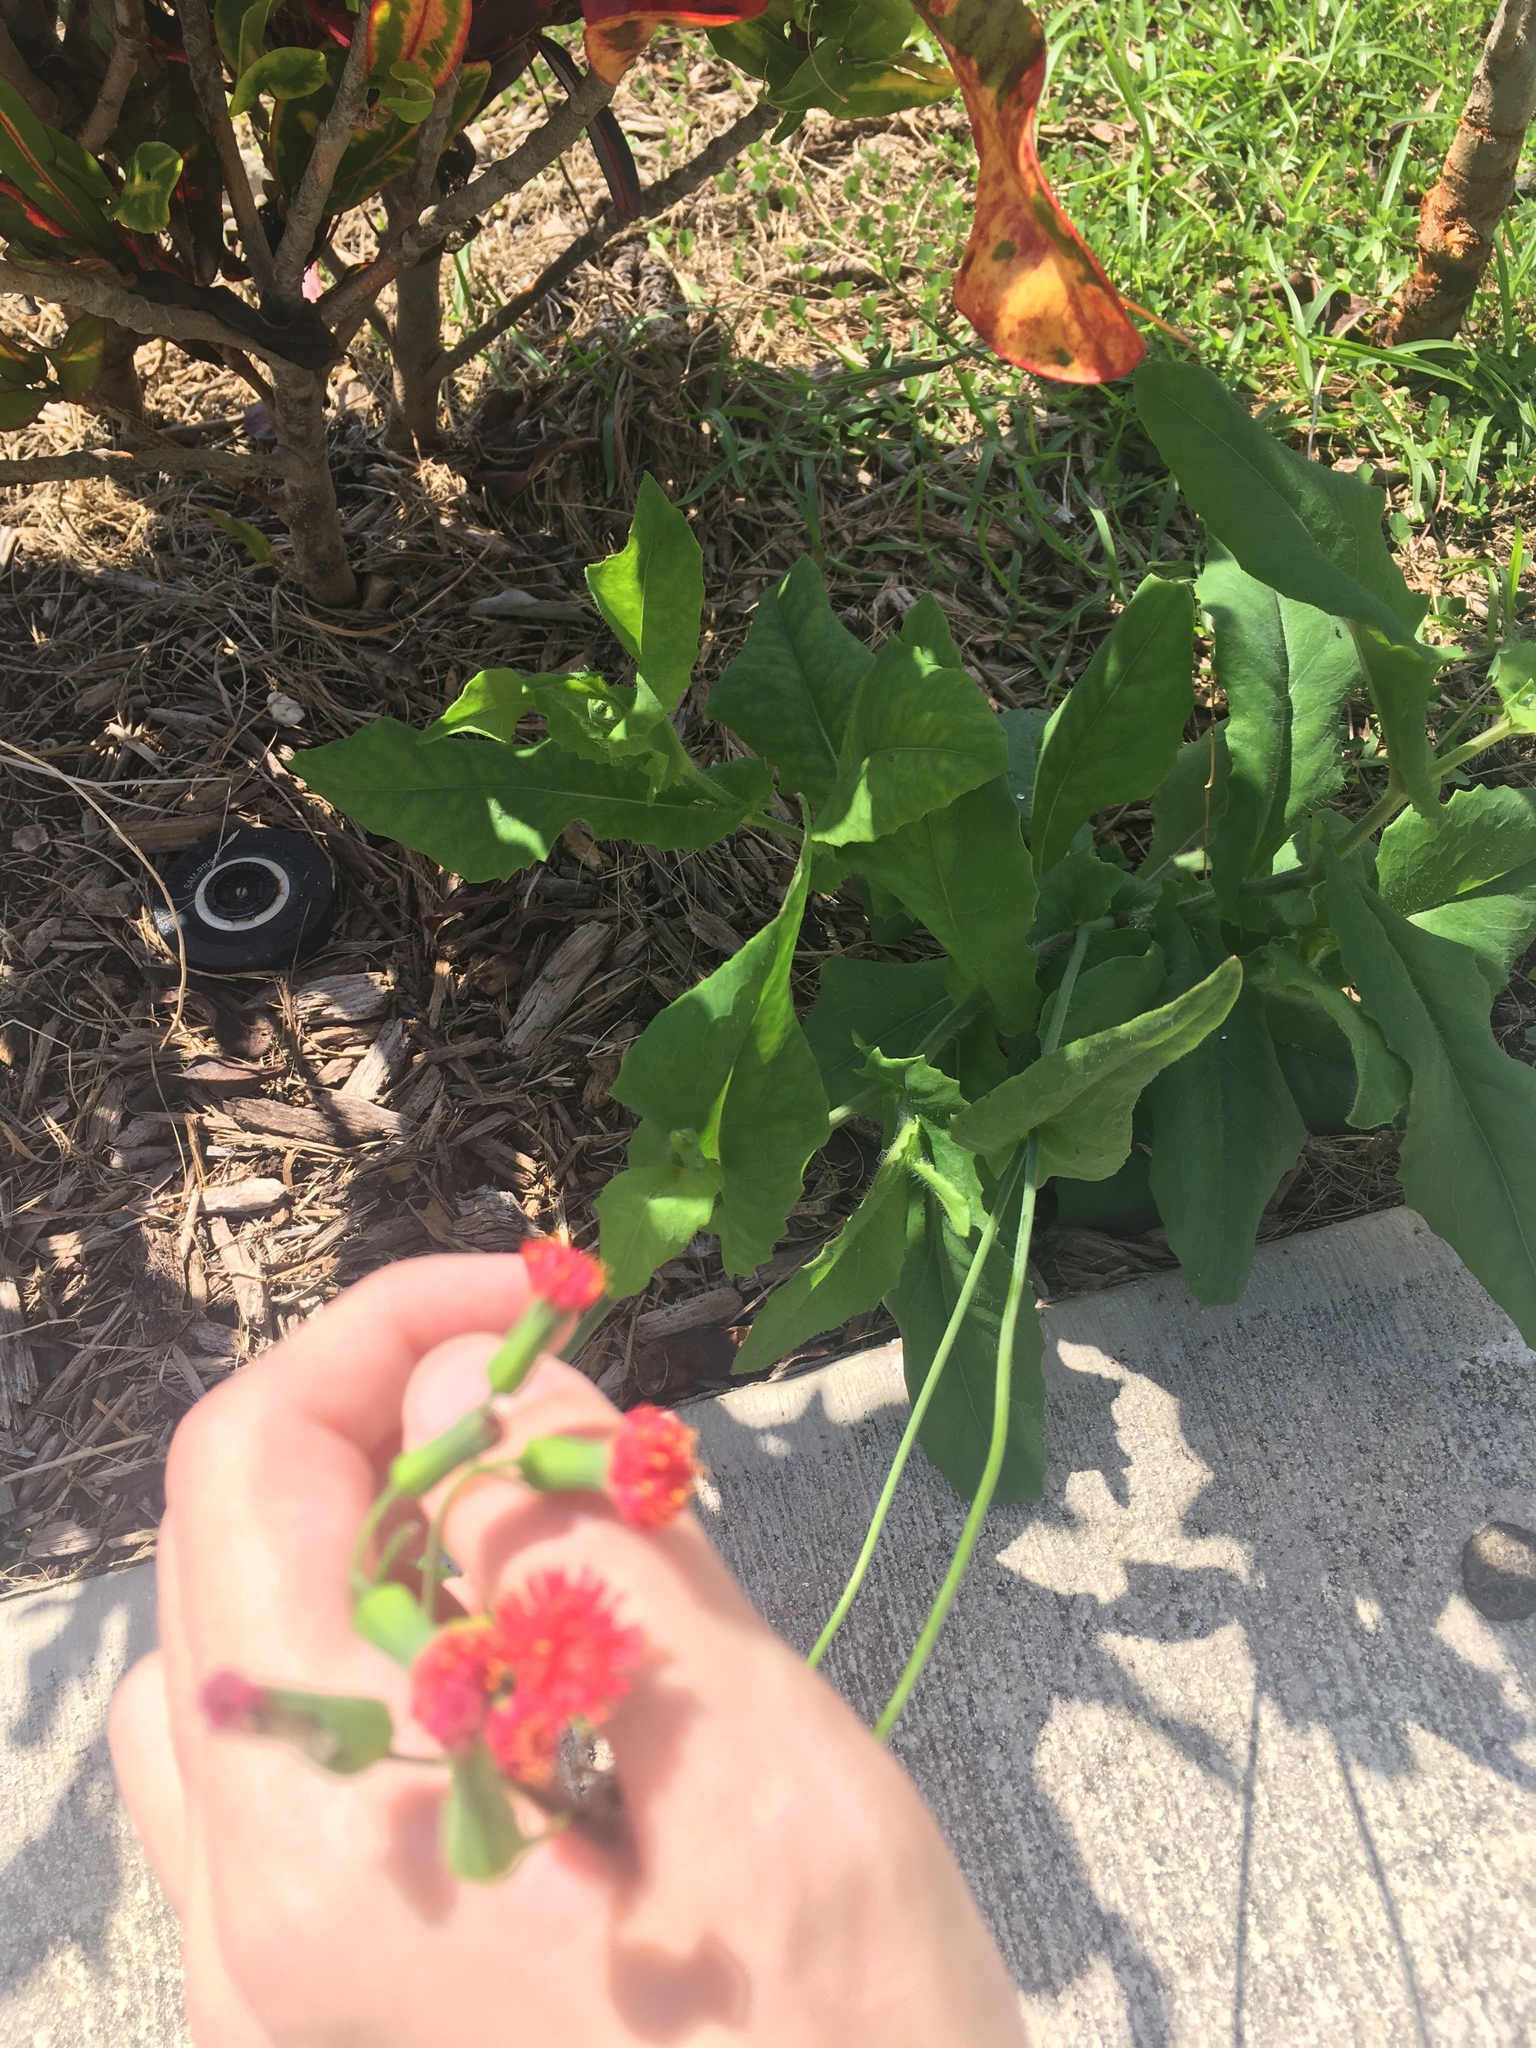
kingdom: Plantae
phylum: Tracheophyta
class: Magnoliopsida
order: Asterales
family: Asteraceae
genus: Emilia
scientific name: Emilia fosbergii
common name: Florida tasselflower
